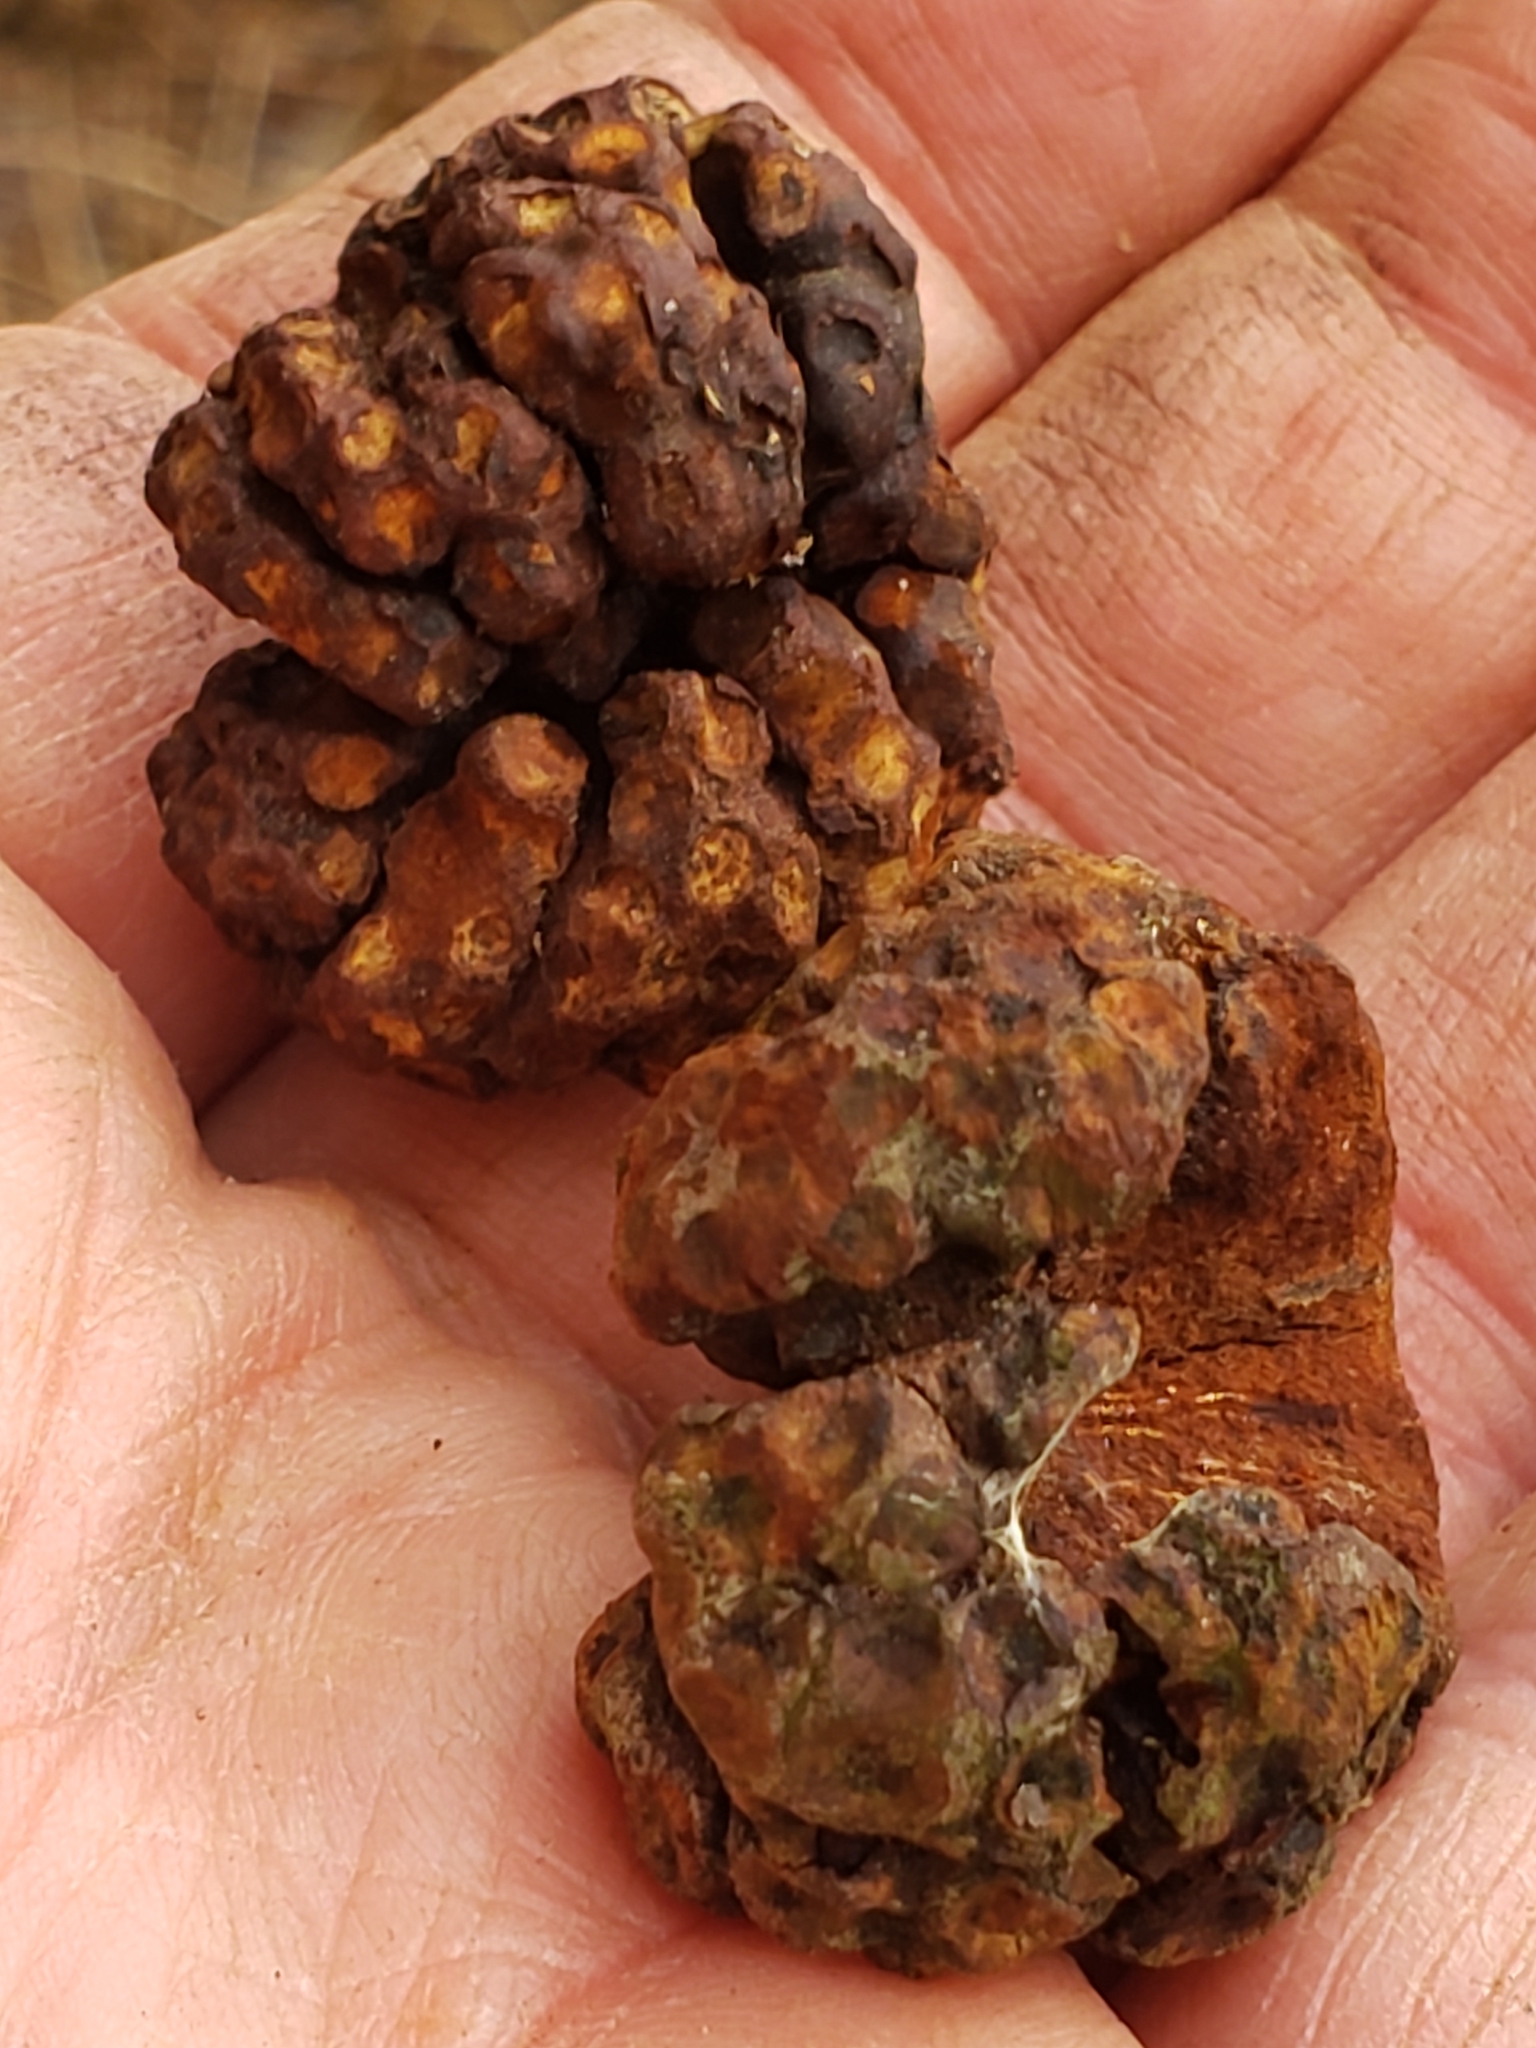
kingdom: Fungi
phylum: Basidiomycota
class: Pucciniomycetes
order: Pucciniales
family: Gymnosporangiaceae
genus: Gymnosporangium
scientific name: Gymnosporangium juniperi-virginianae
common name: Juniper-apple rust
